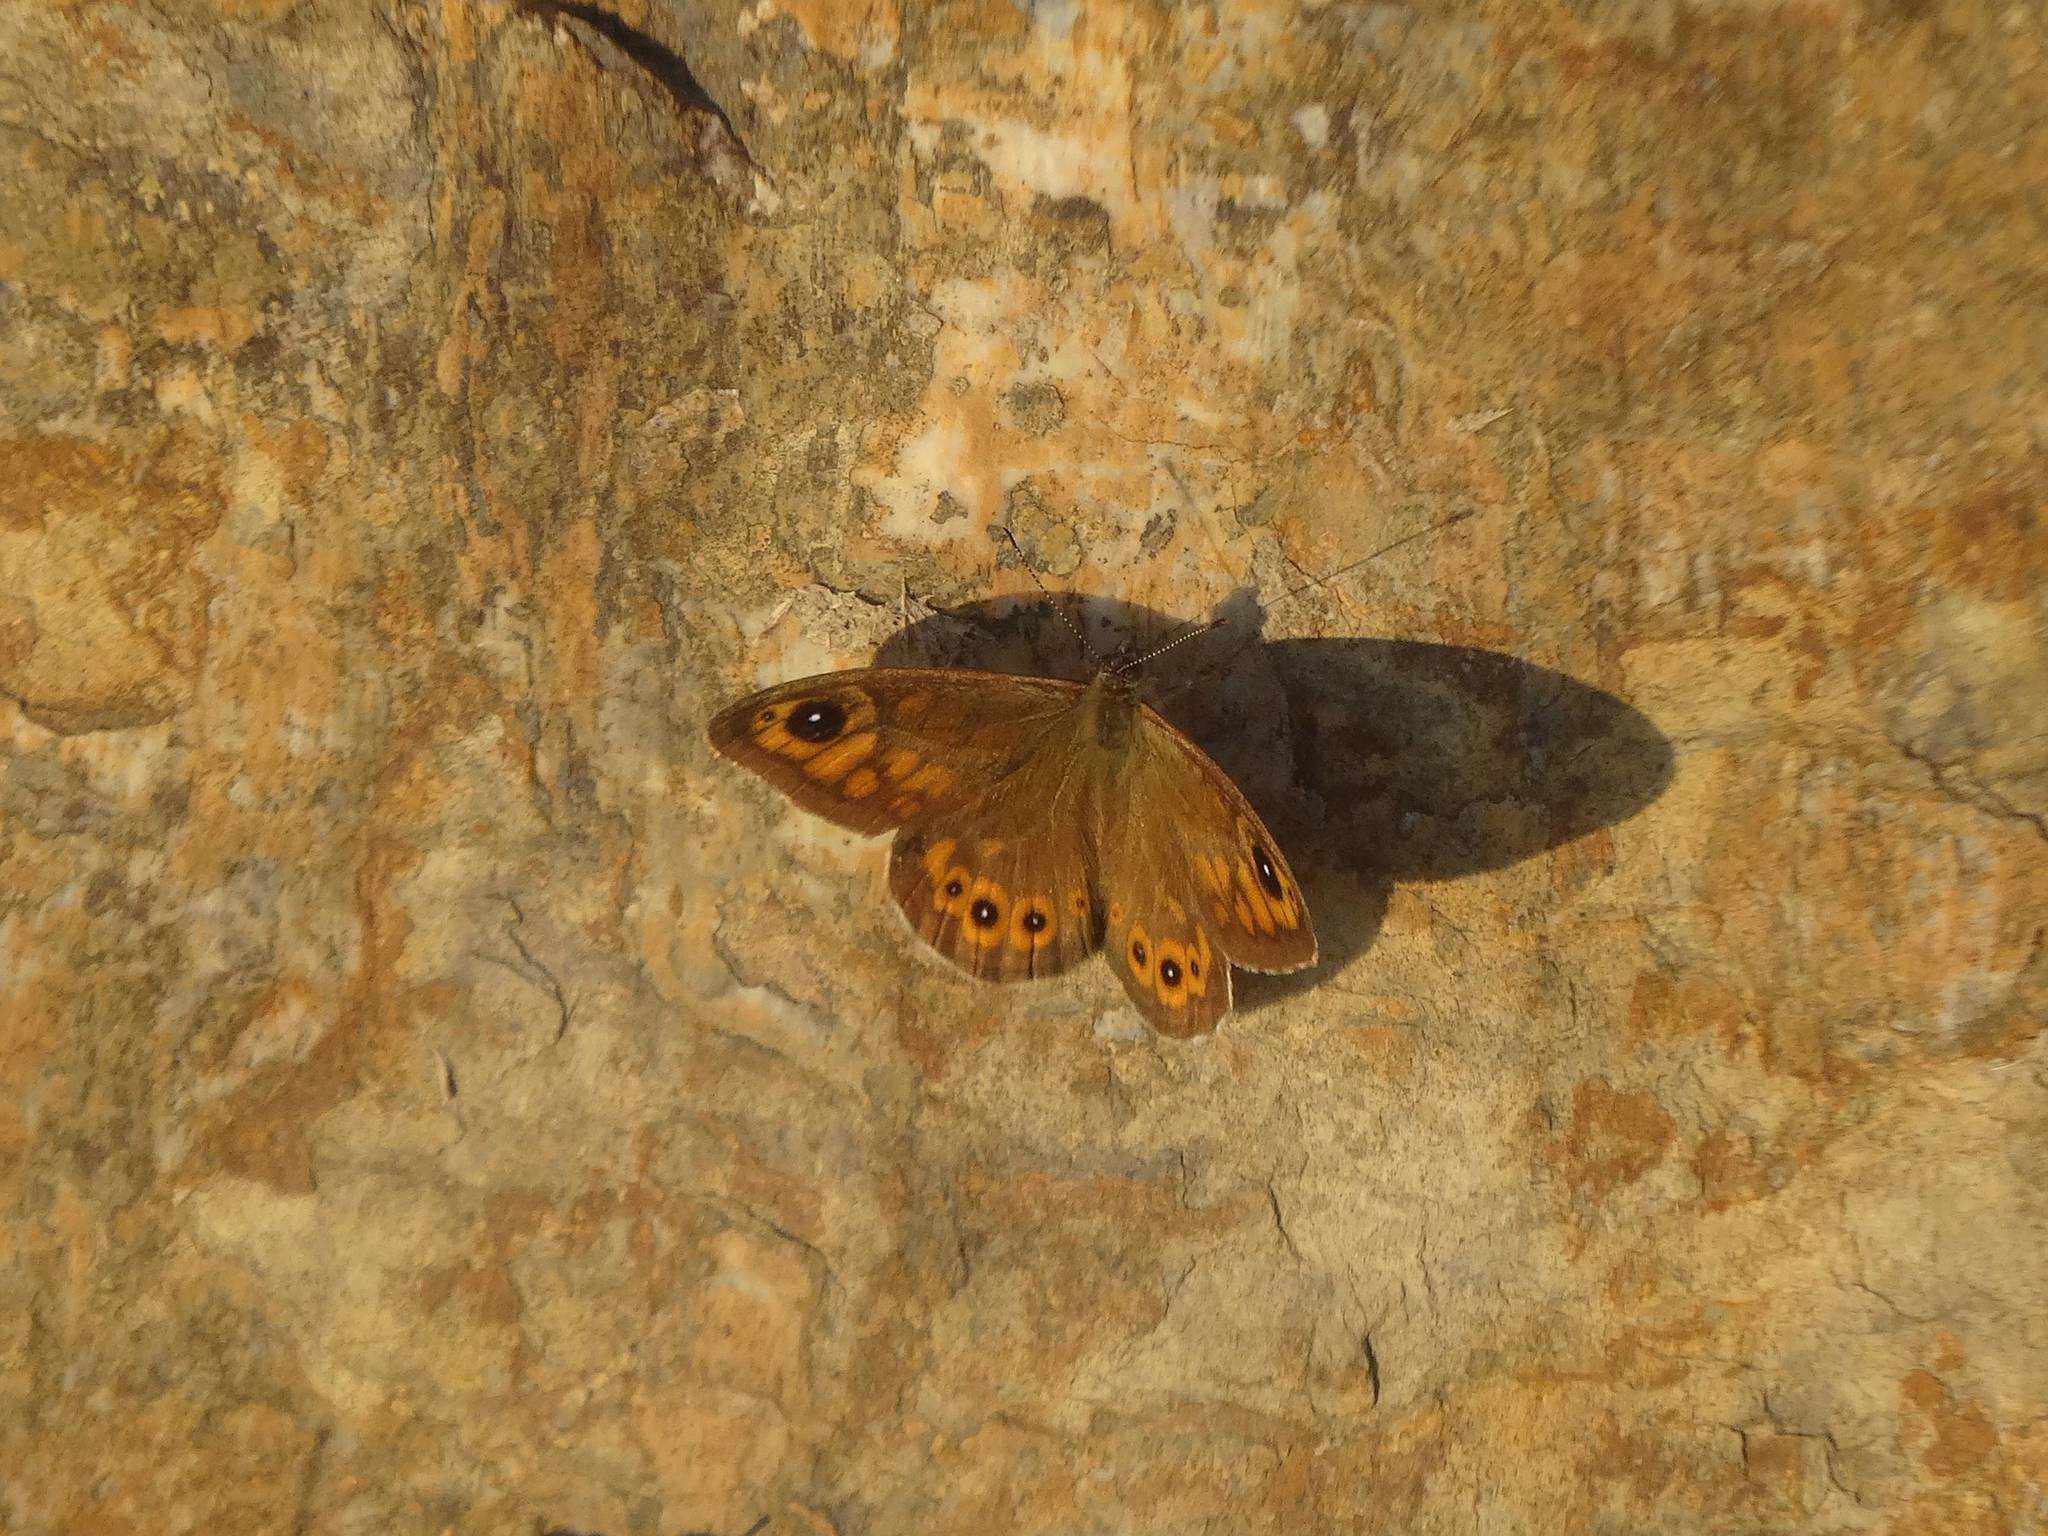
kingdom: Animalia
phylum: Arthropoda
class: Insecta
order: Lepidoptera
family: Nymphalidae
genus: Pararge
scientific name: Pararge Lasiommata maera
